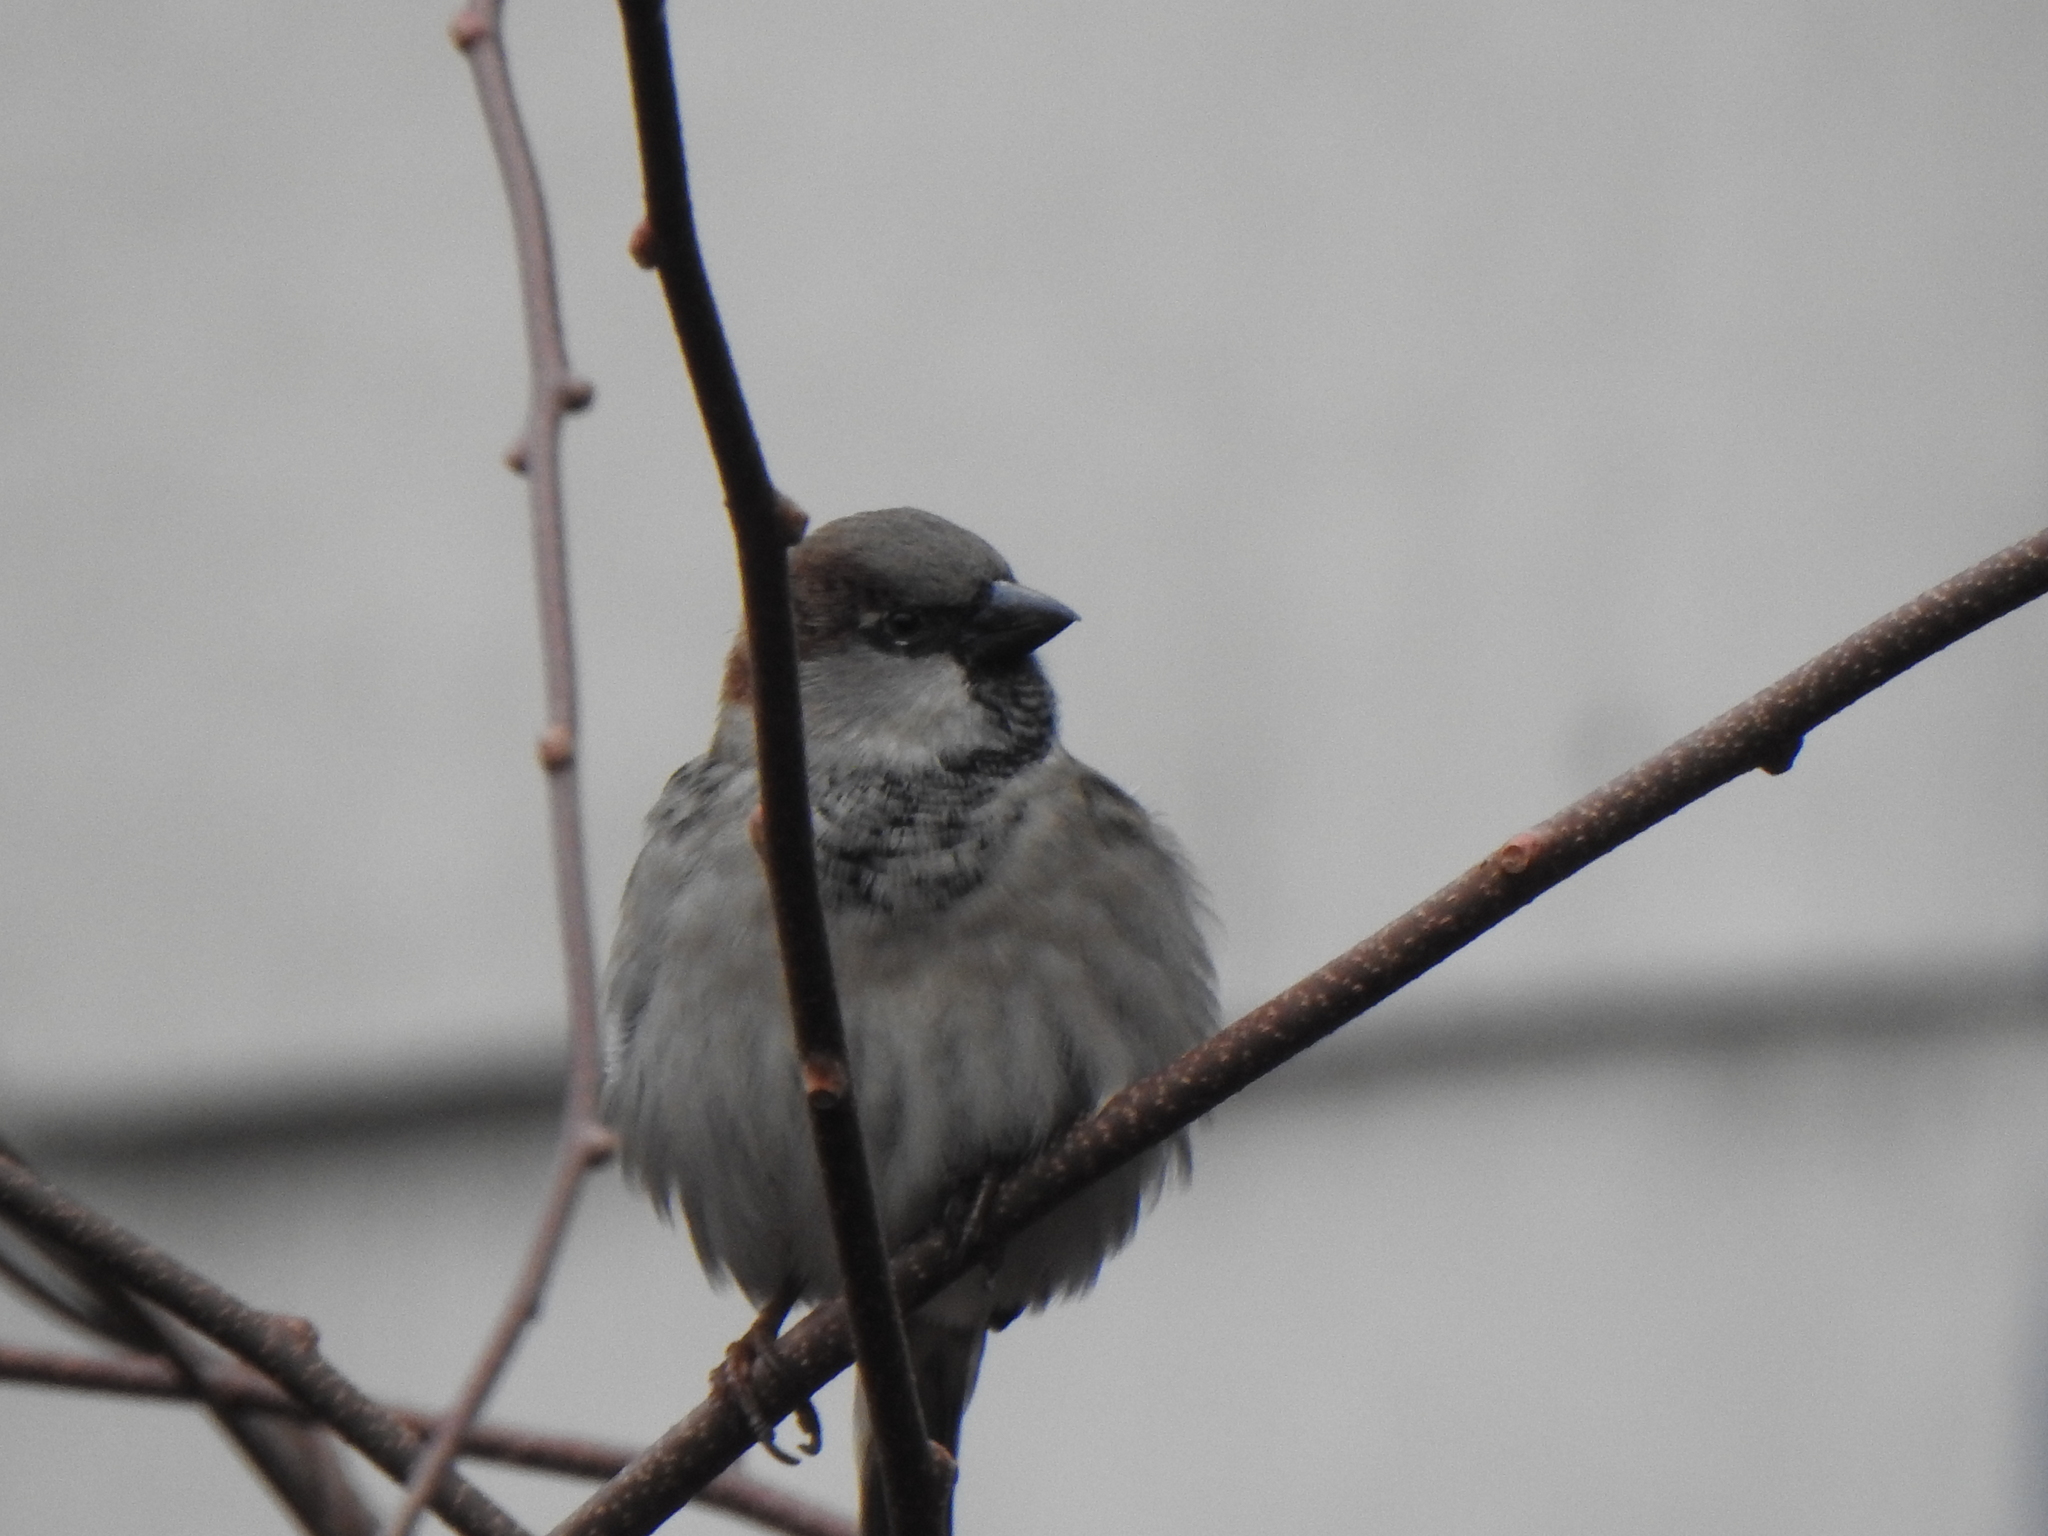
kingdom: Animalia
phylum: Chordata
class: Aves
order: Passeriformes
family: Passeridae
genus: Passer
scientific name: Passer domesticus
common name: House sparrow
